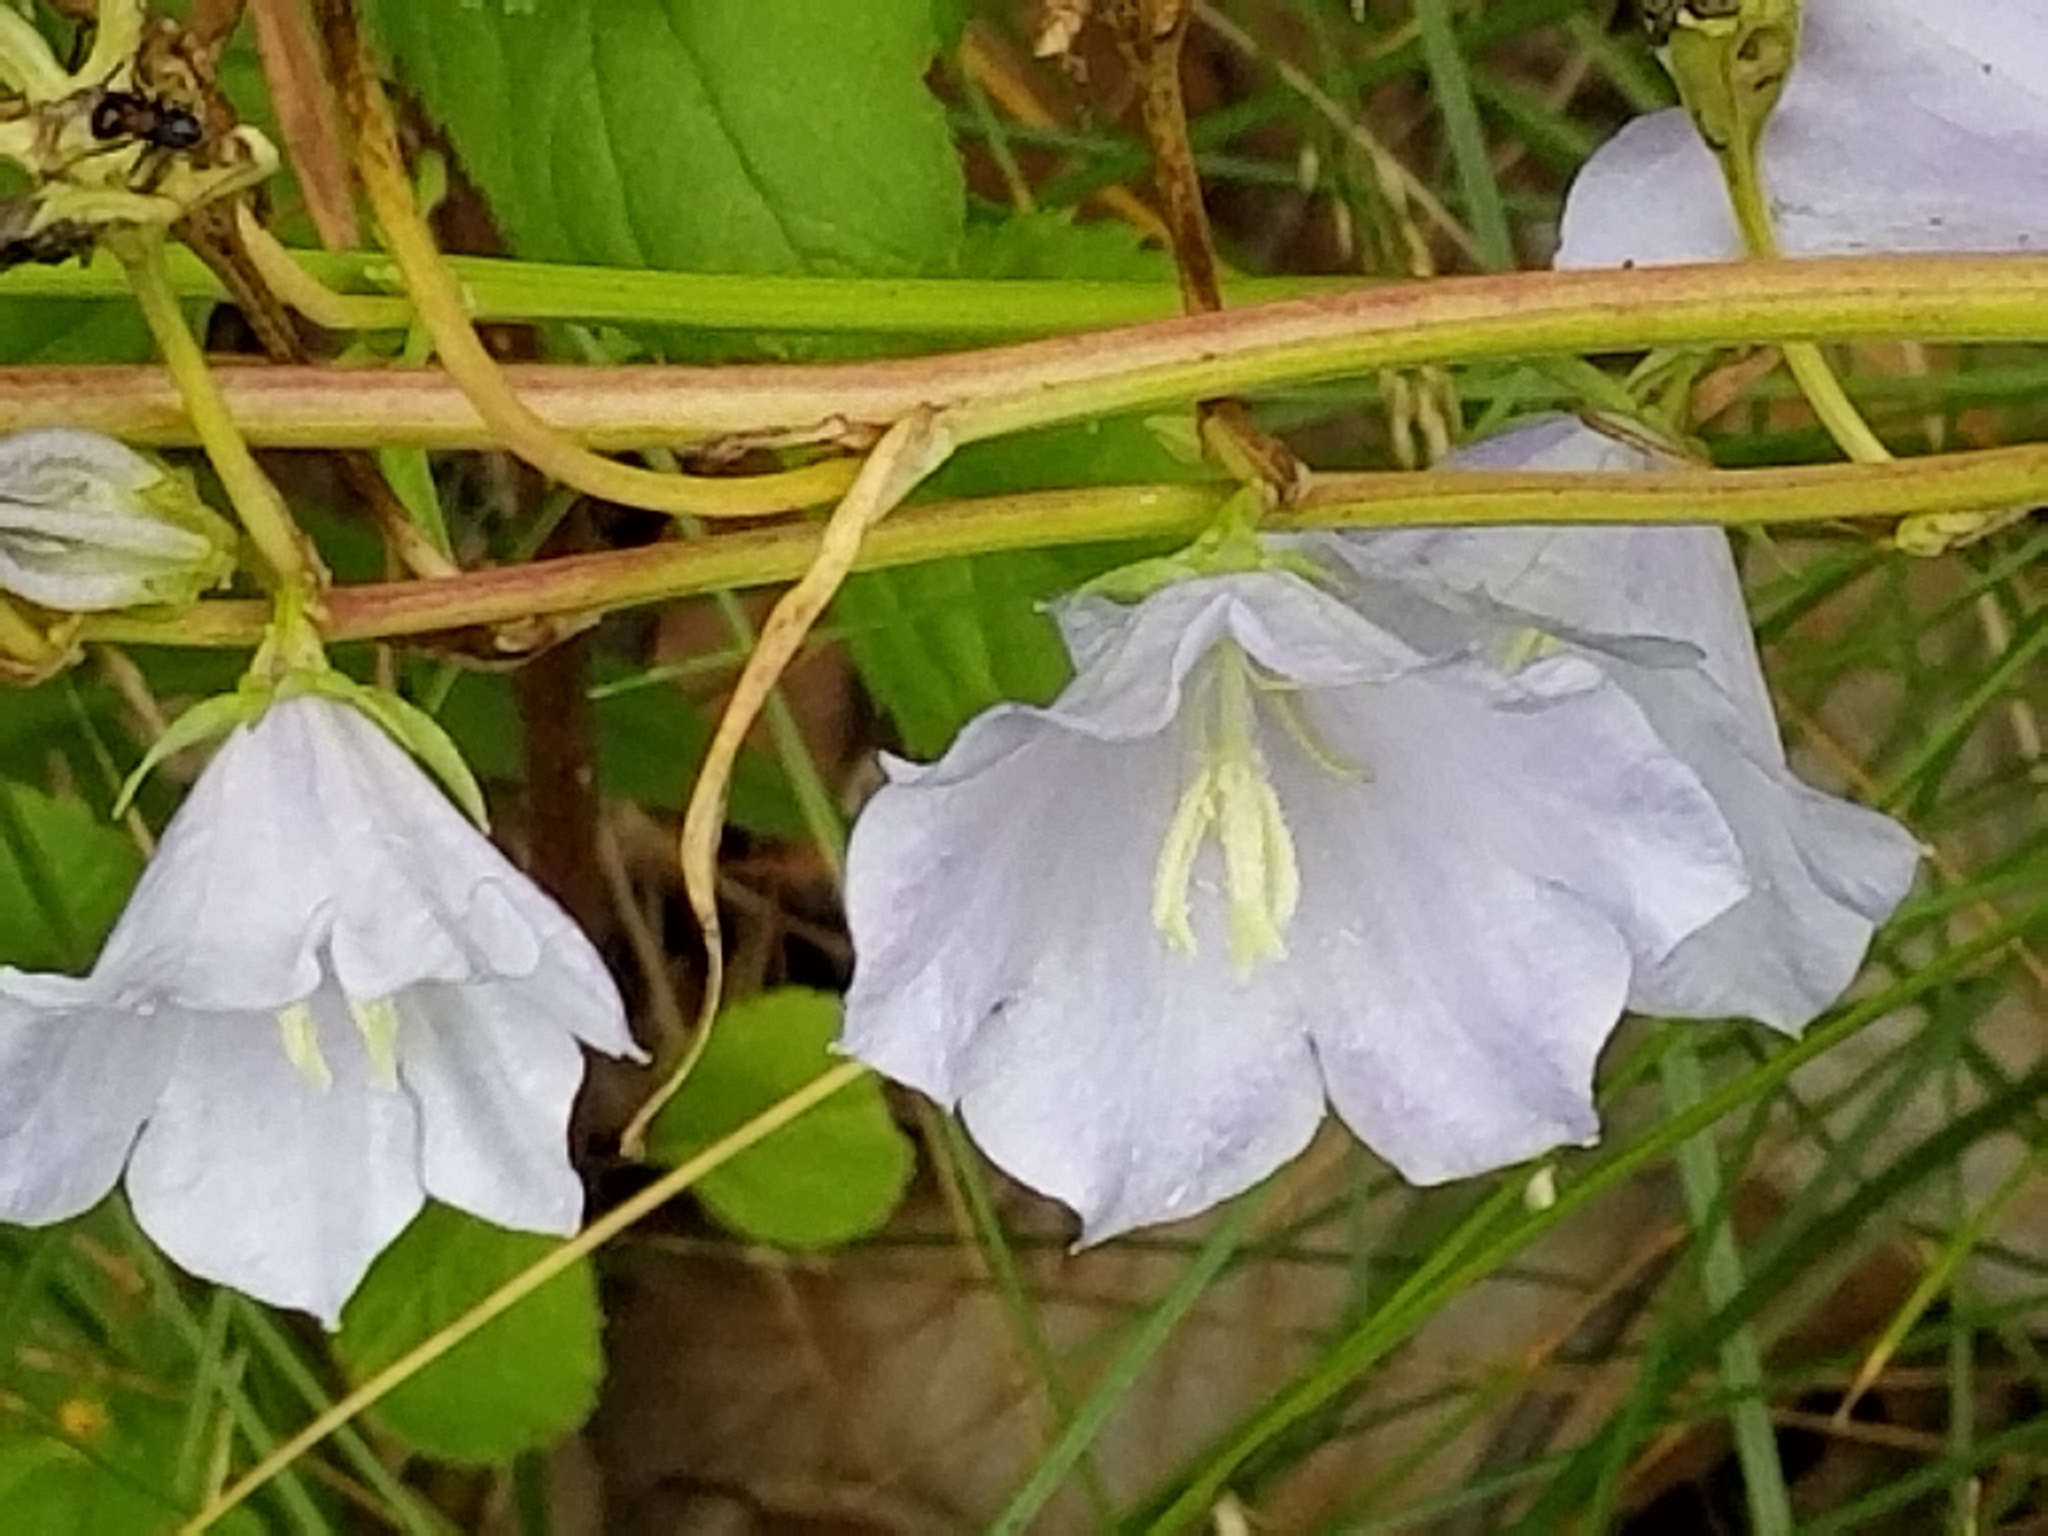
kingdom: Plantae
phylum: Tracheophyta
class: Magnoliopsida
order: Asterales
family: Campanulaceae
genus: Campanula
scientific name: Campanula intercedens
